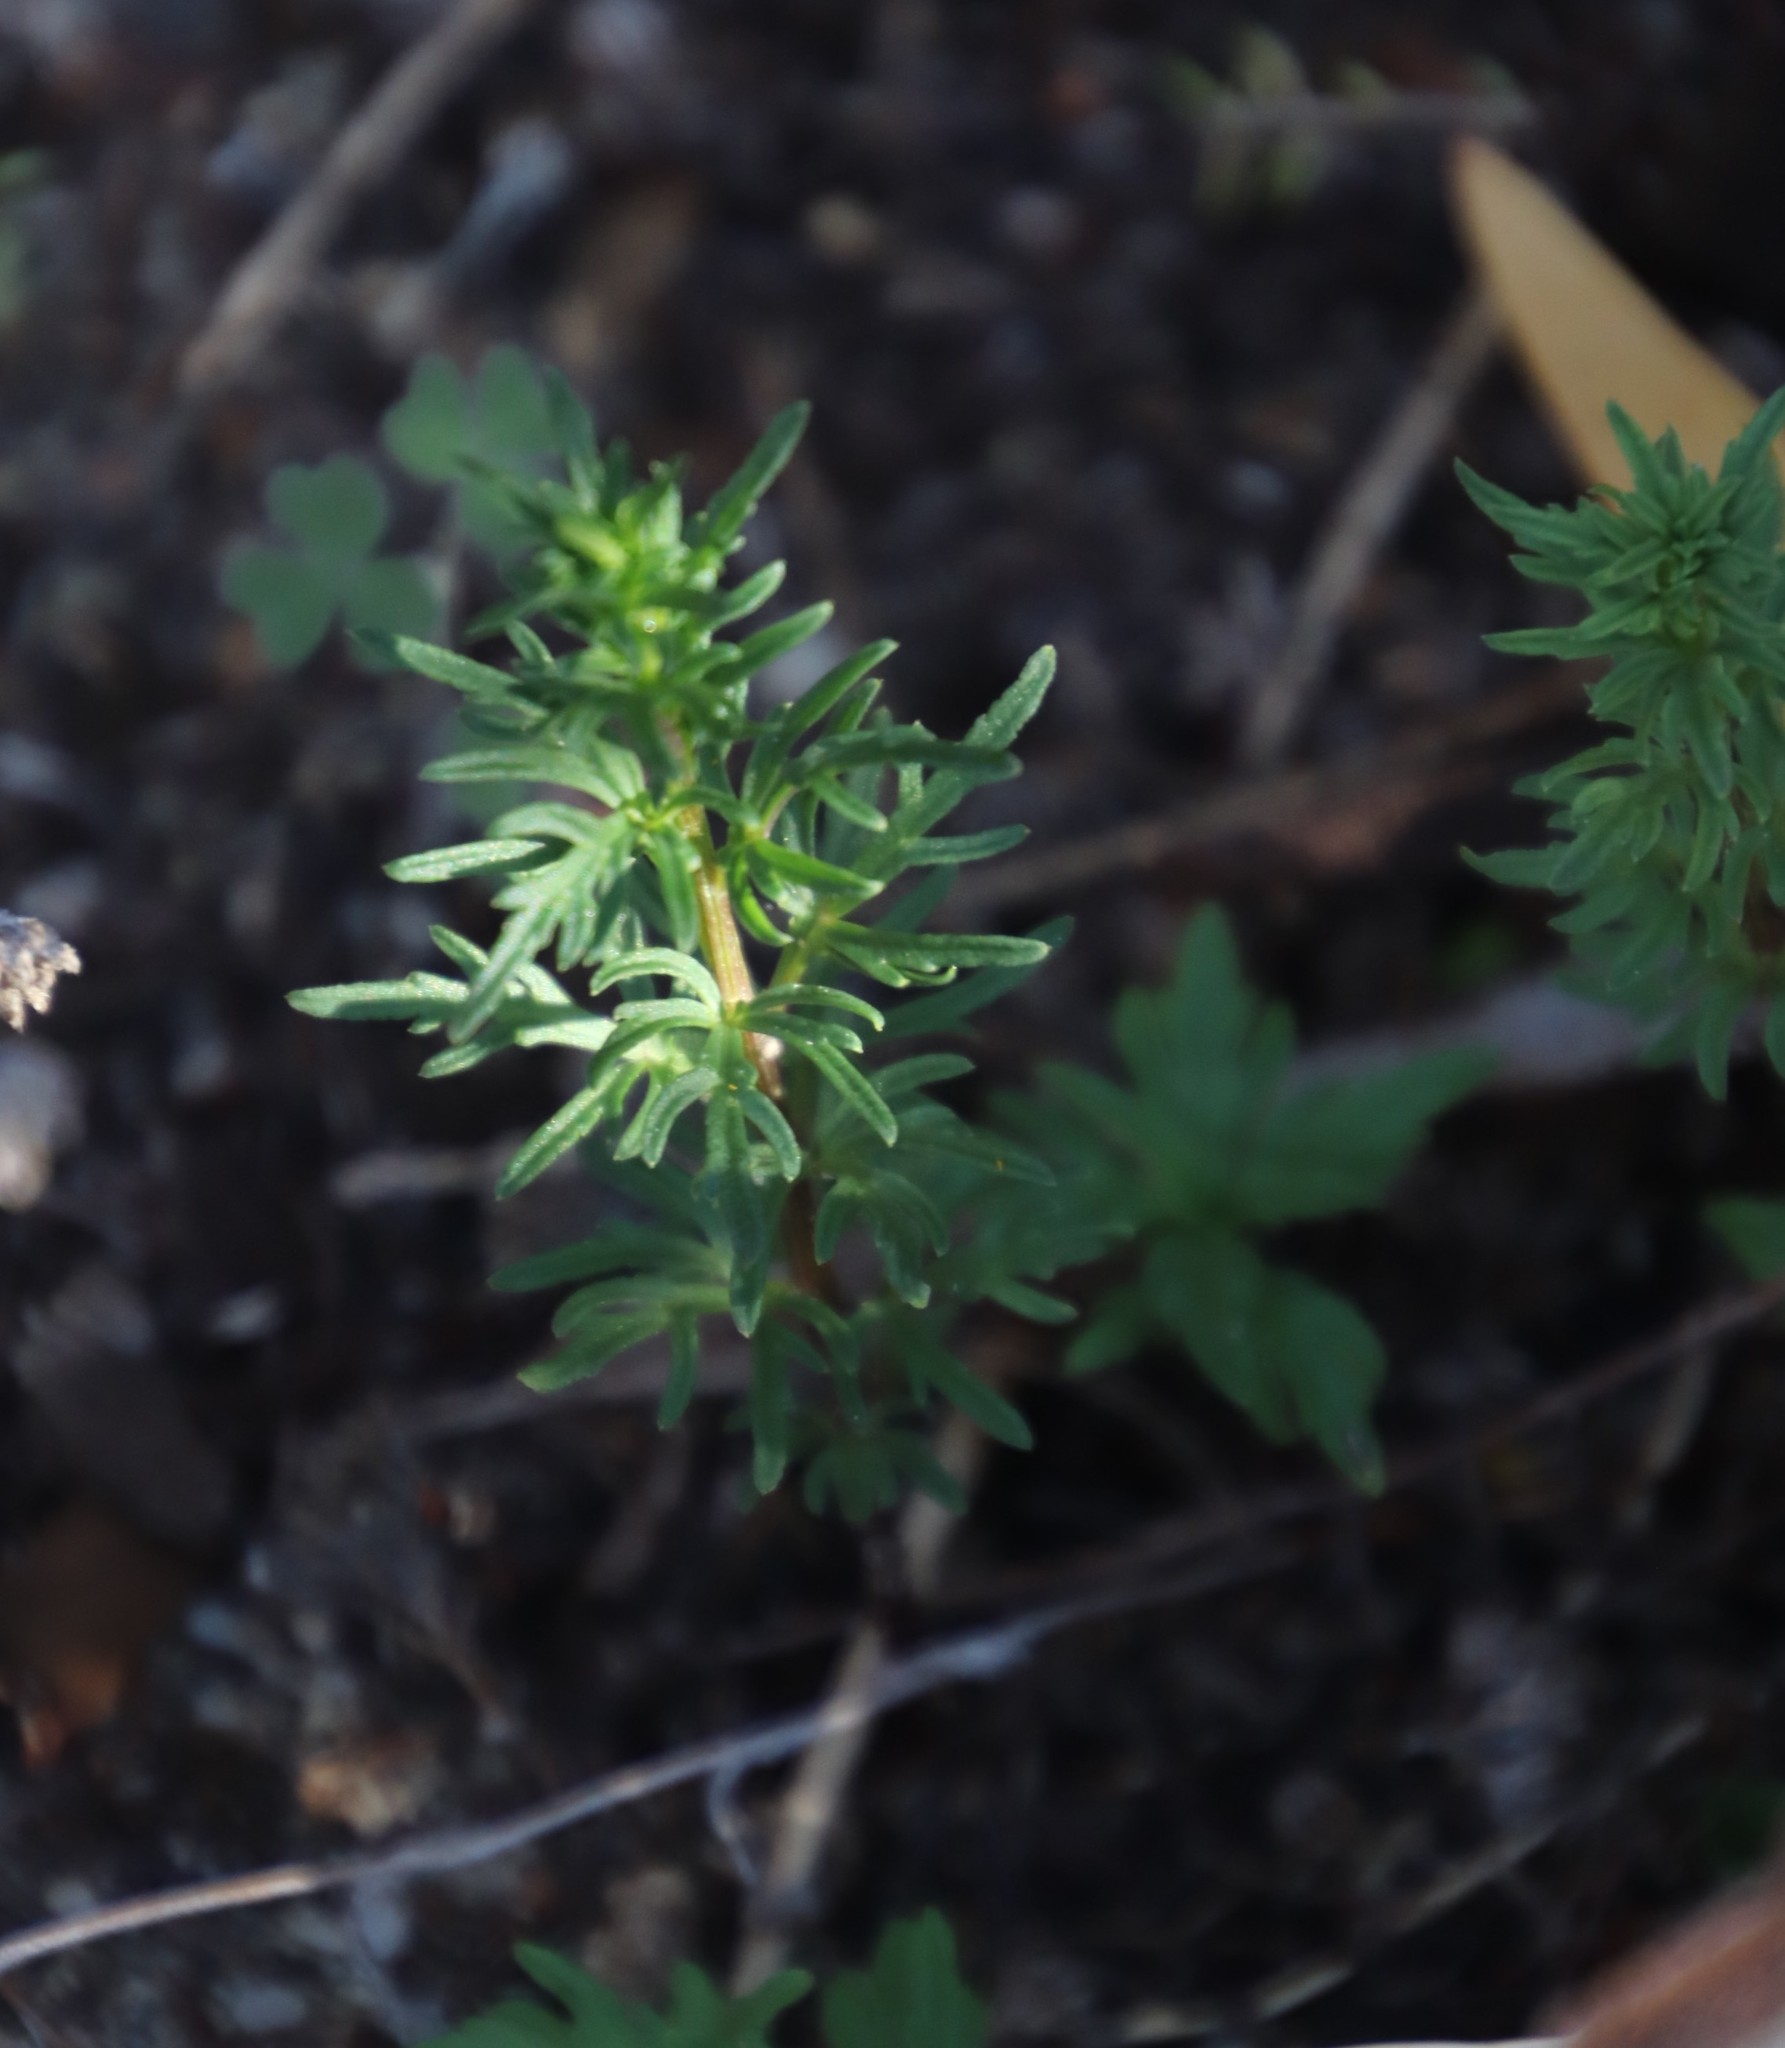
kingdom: Plantae
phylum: Tracheophyta
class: Magnoliopsida
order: Asterales
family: Campanulaceae
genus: Cyphia
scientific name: Cyphia bulbosa
